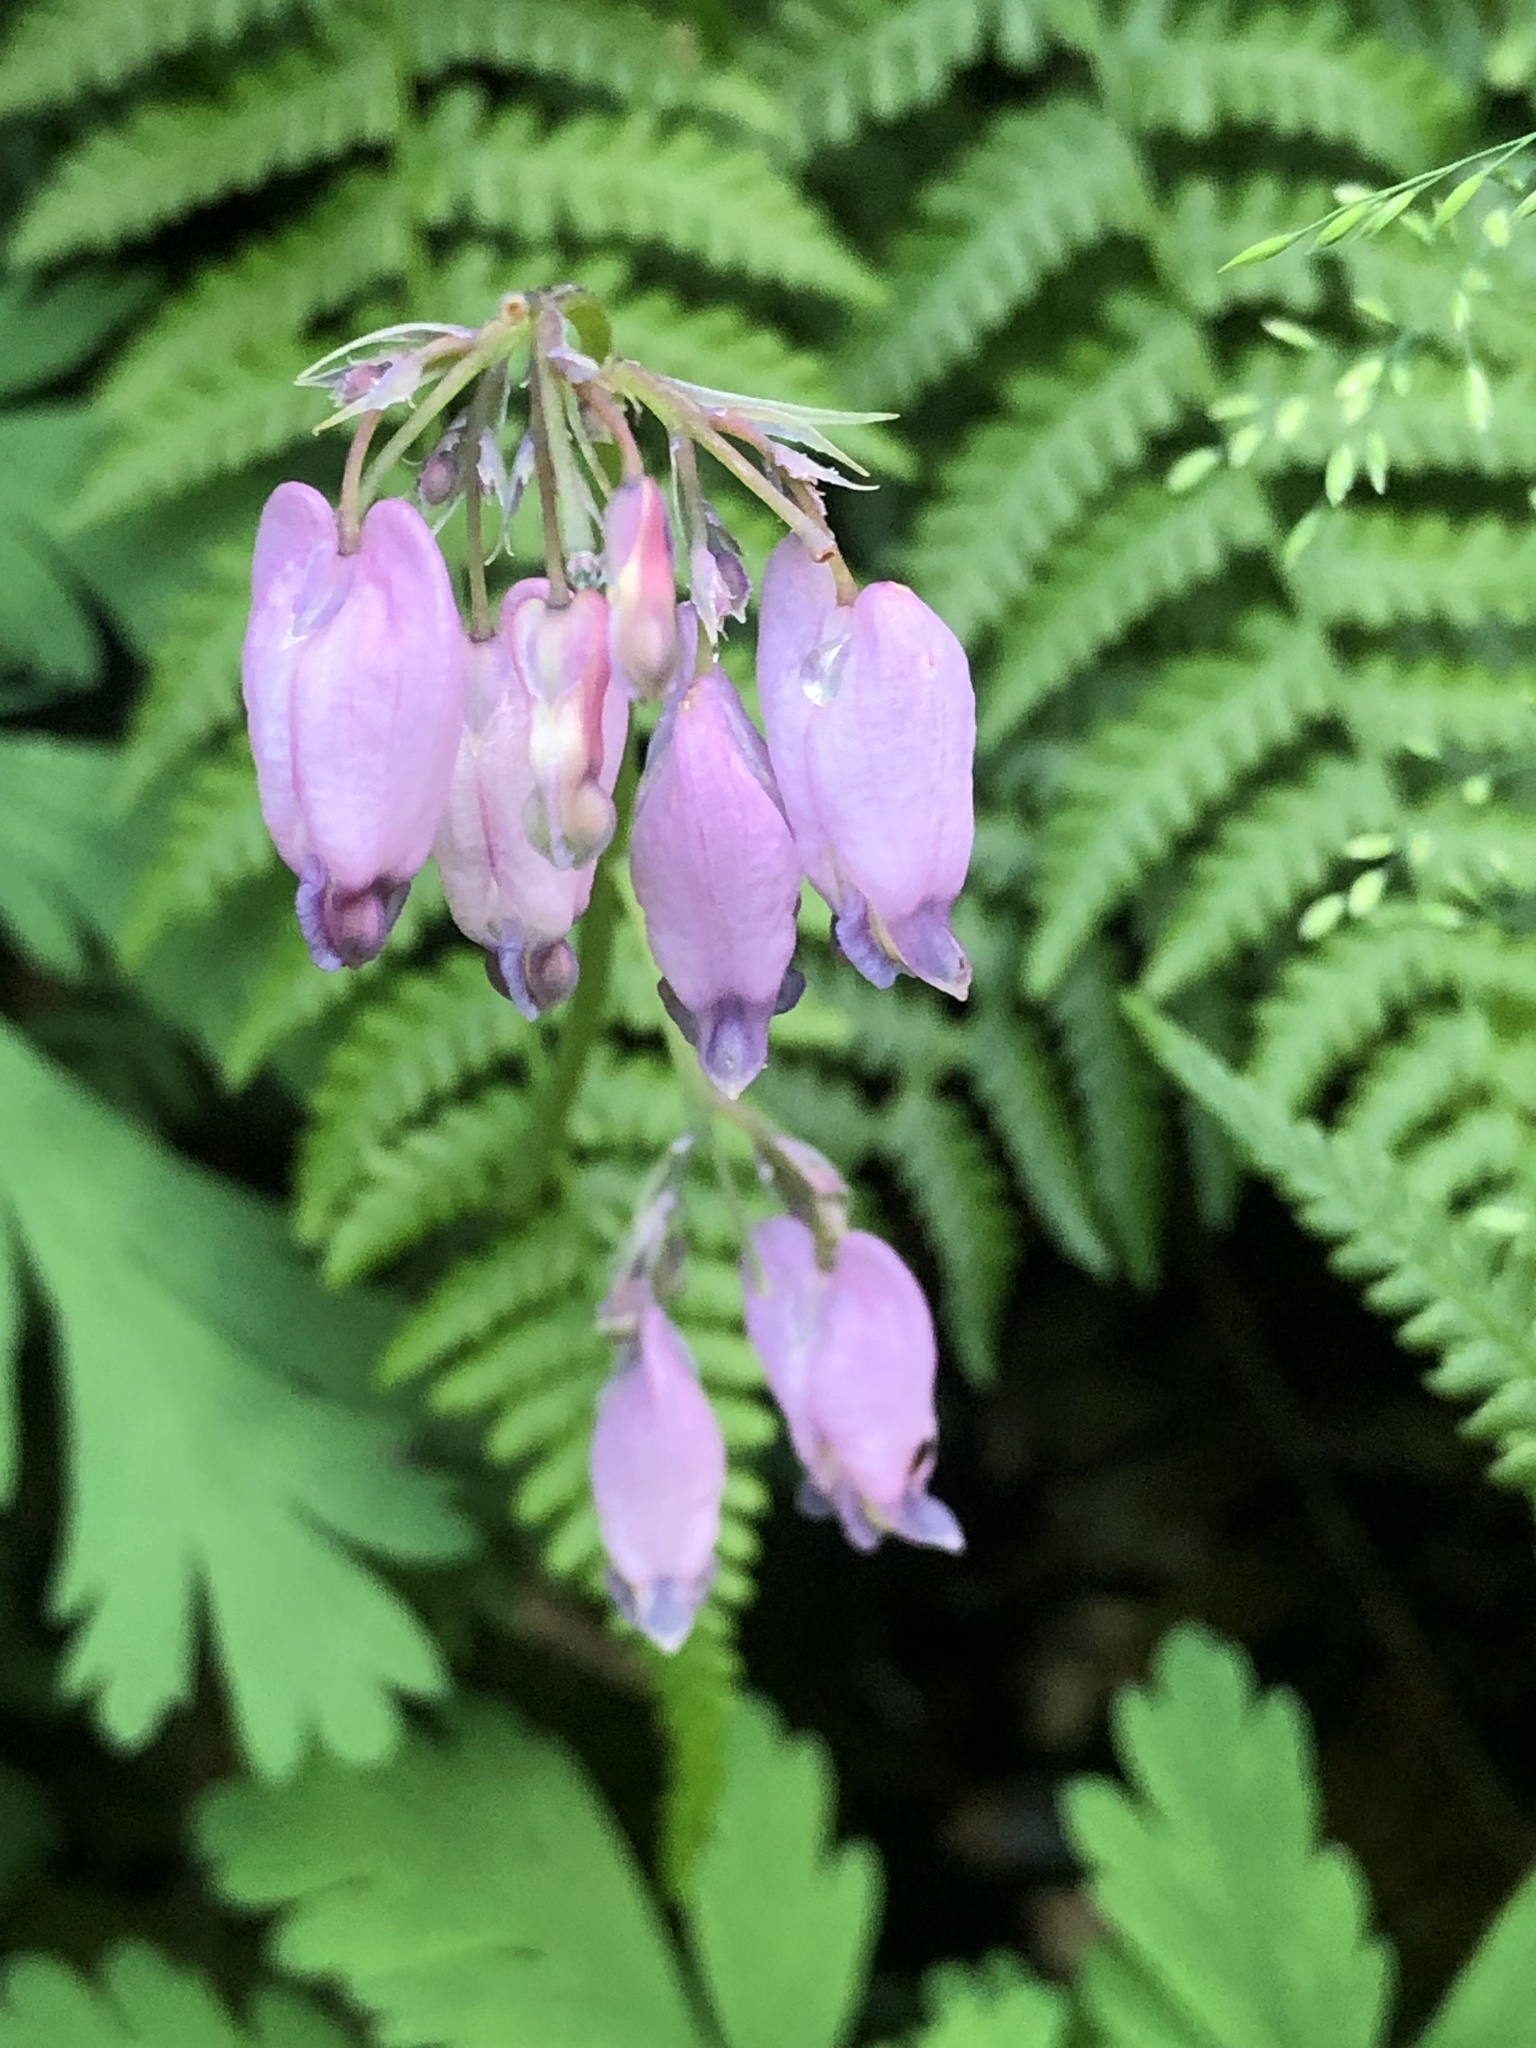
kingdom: Plantae
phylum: Tracheophyta
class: Magnoliopsida
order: Ranunculales
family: Papaveraceae
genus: Dicentra
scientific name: Dicentra formosa
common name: Bleeding-heart
